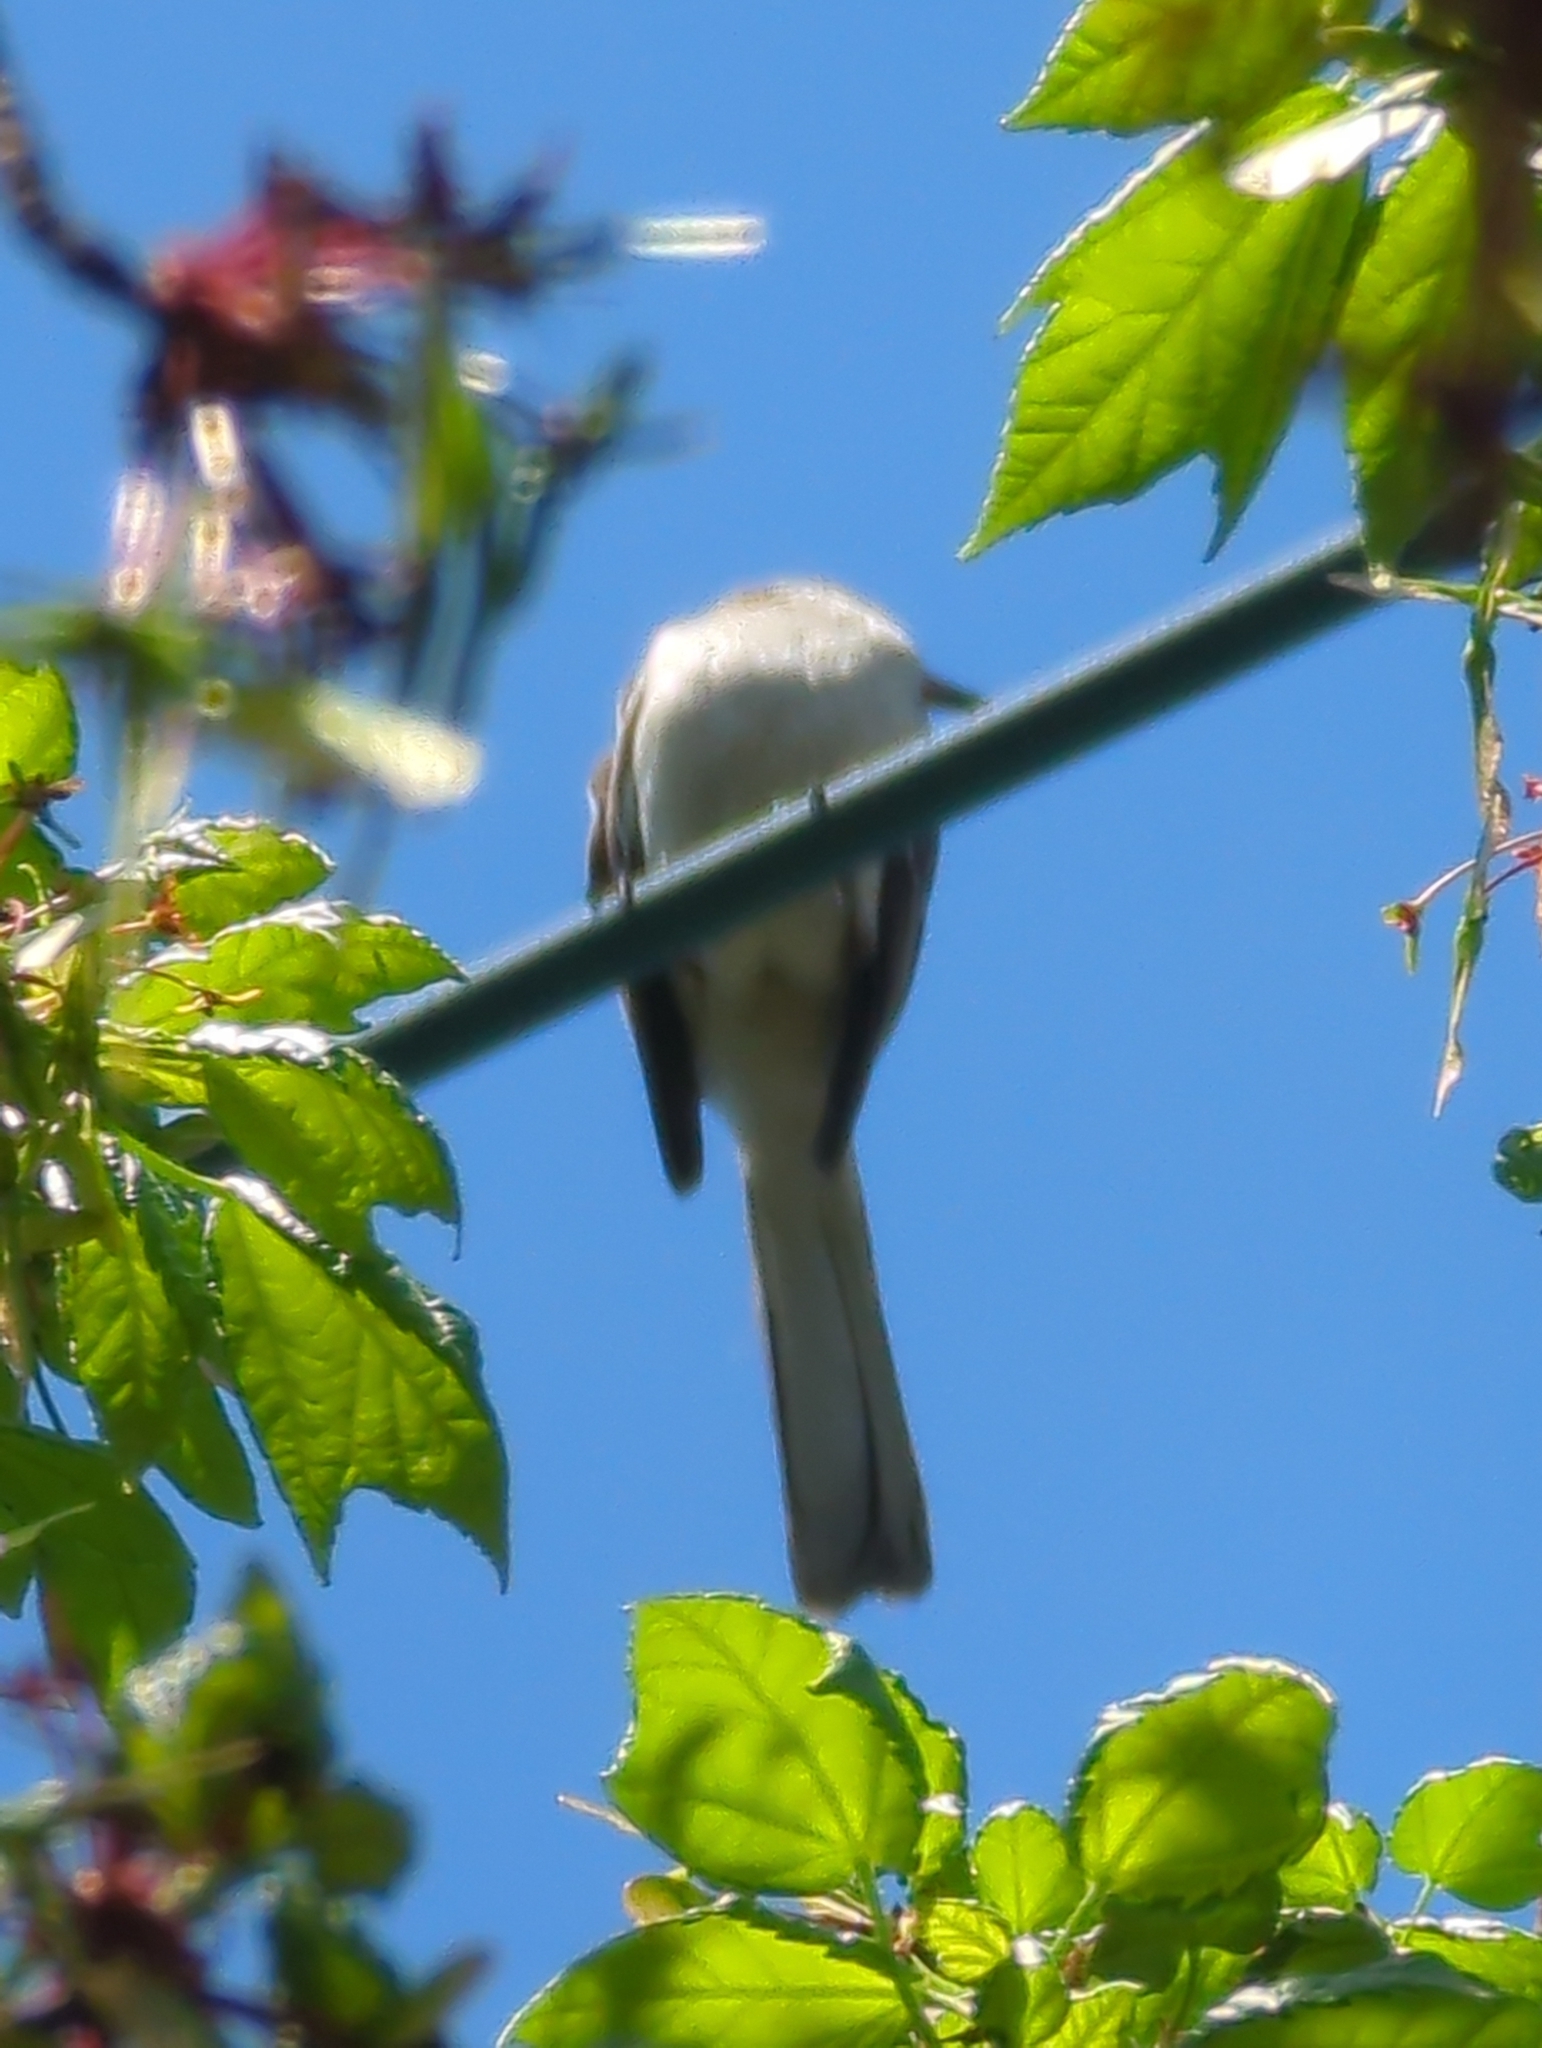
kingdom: Animalia
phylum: Chordata
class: Aves
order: Passeriformes
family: Mimidae
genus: Mimus
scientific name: Mimus polyglottos
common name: Northern mockingbird
